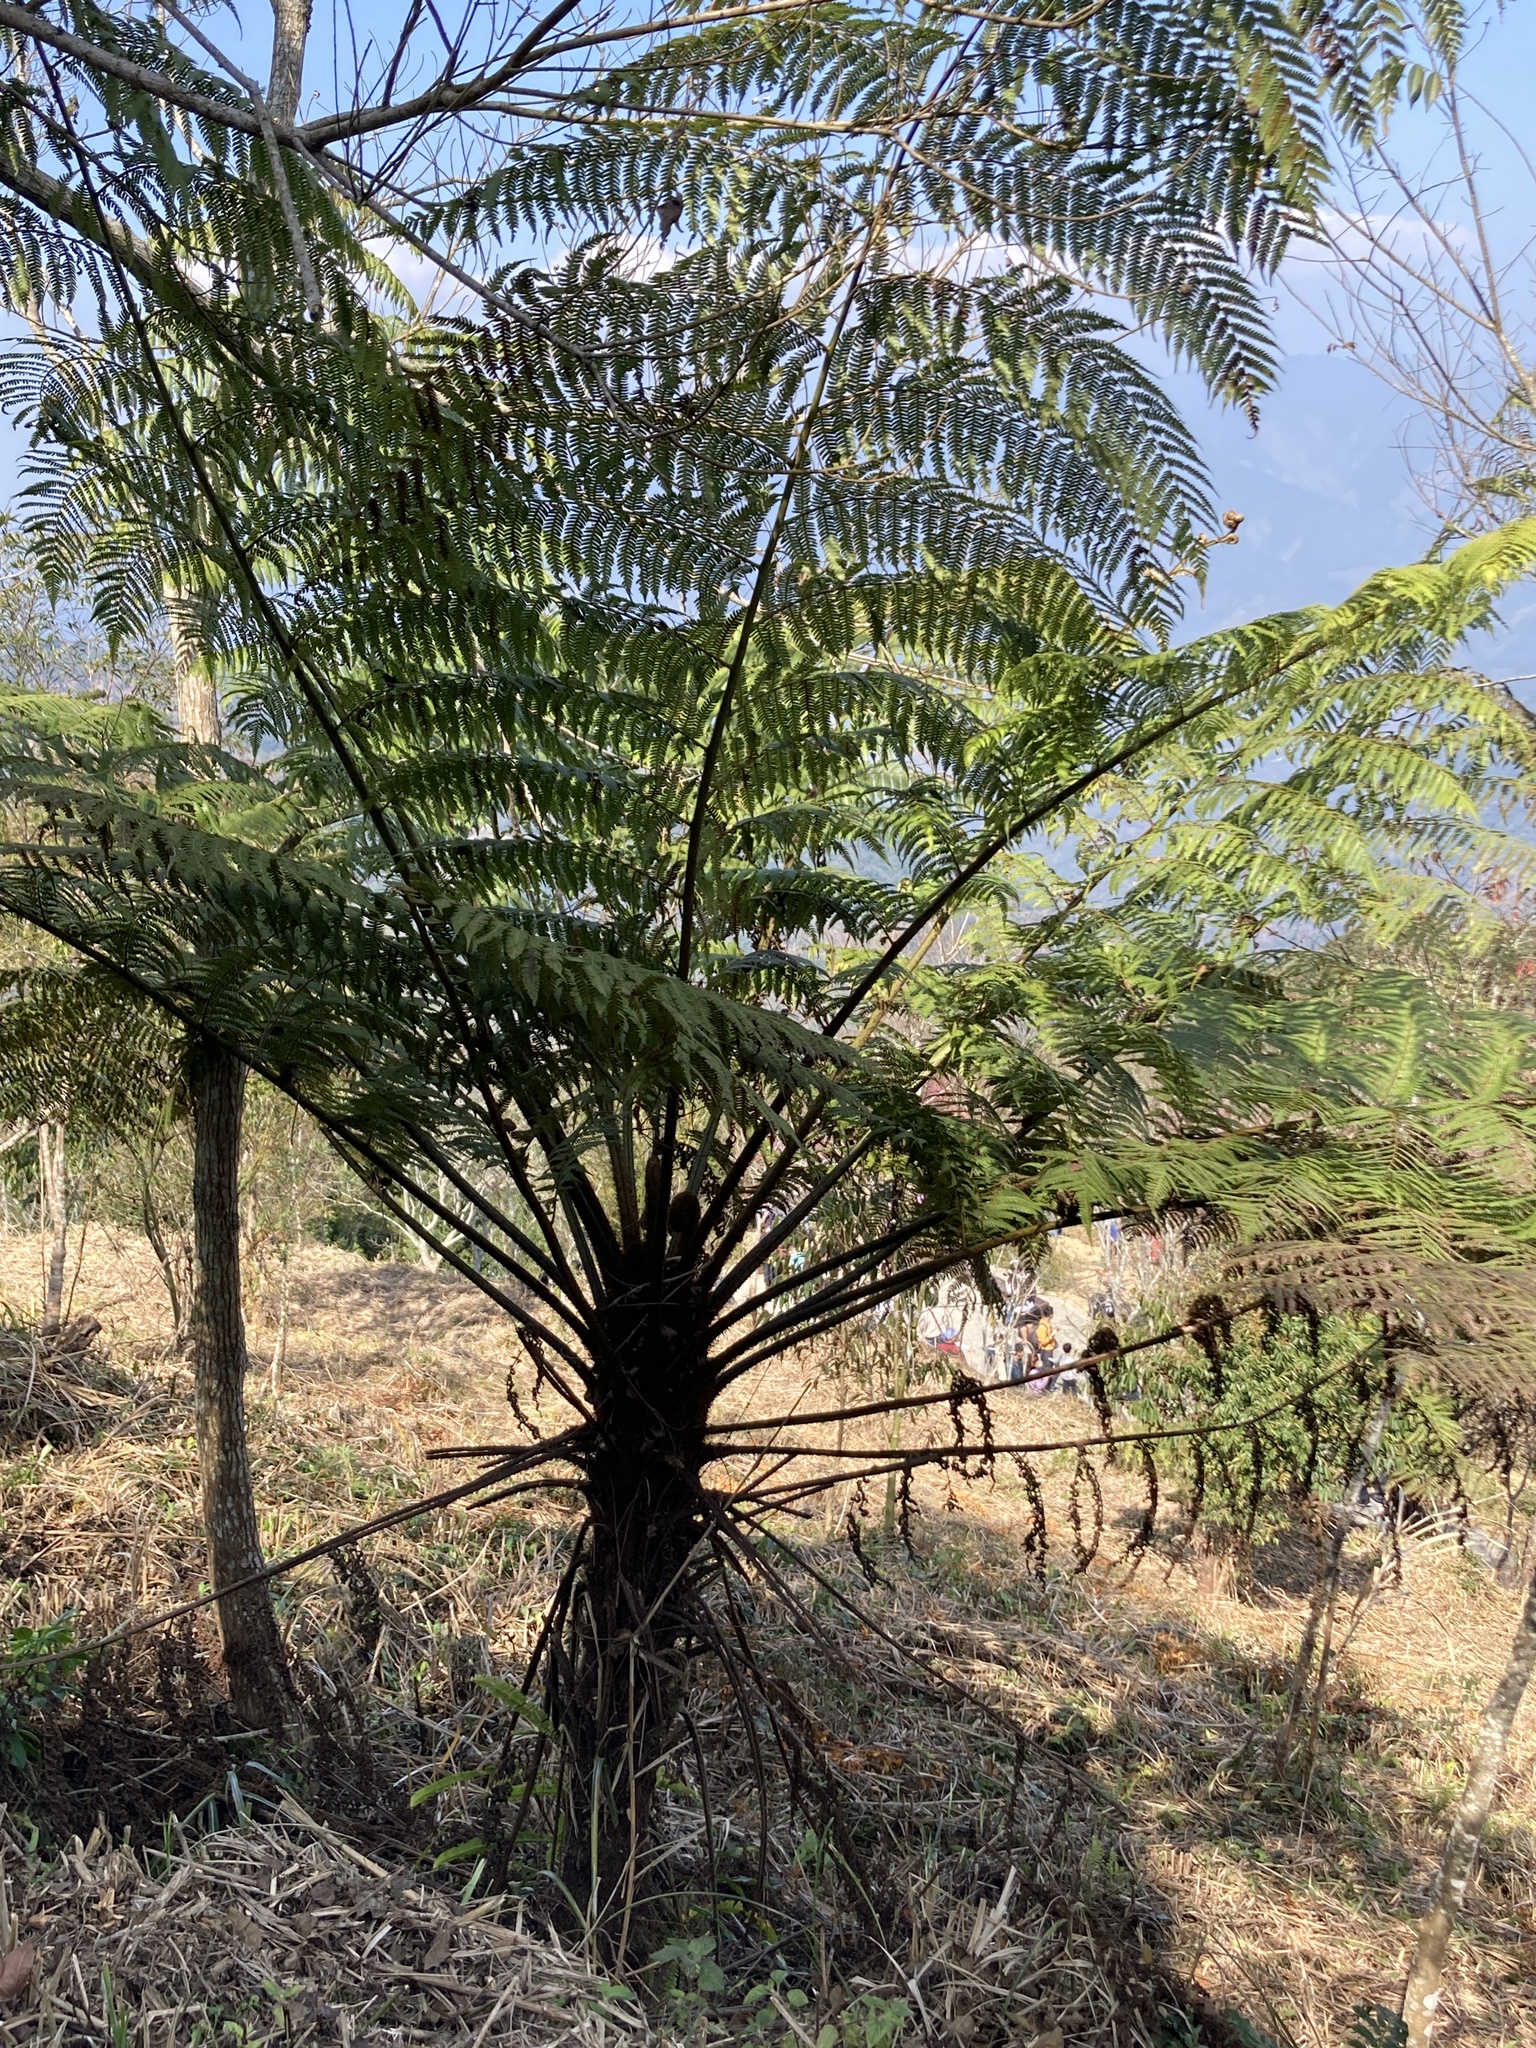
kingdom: Plantae
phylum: Tracheophyta
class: Polypodiopsida
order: Cyatheales
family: Cyatheaceae
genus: Alsophila
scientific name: Alsophila spinulosa
